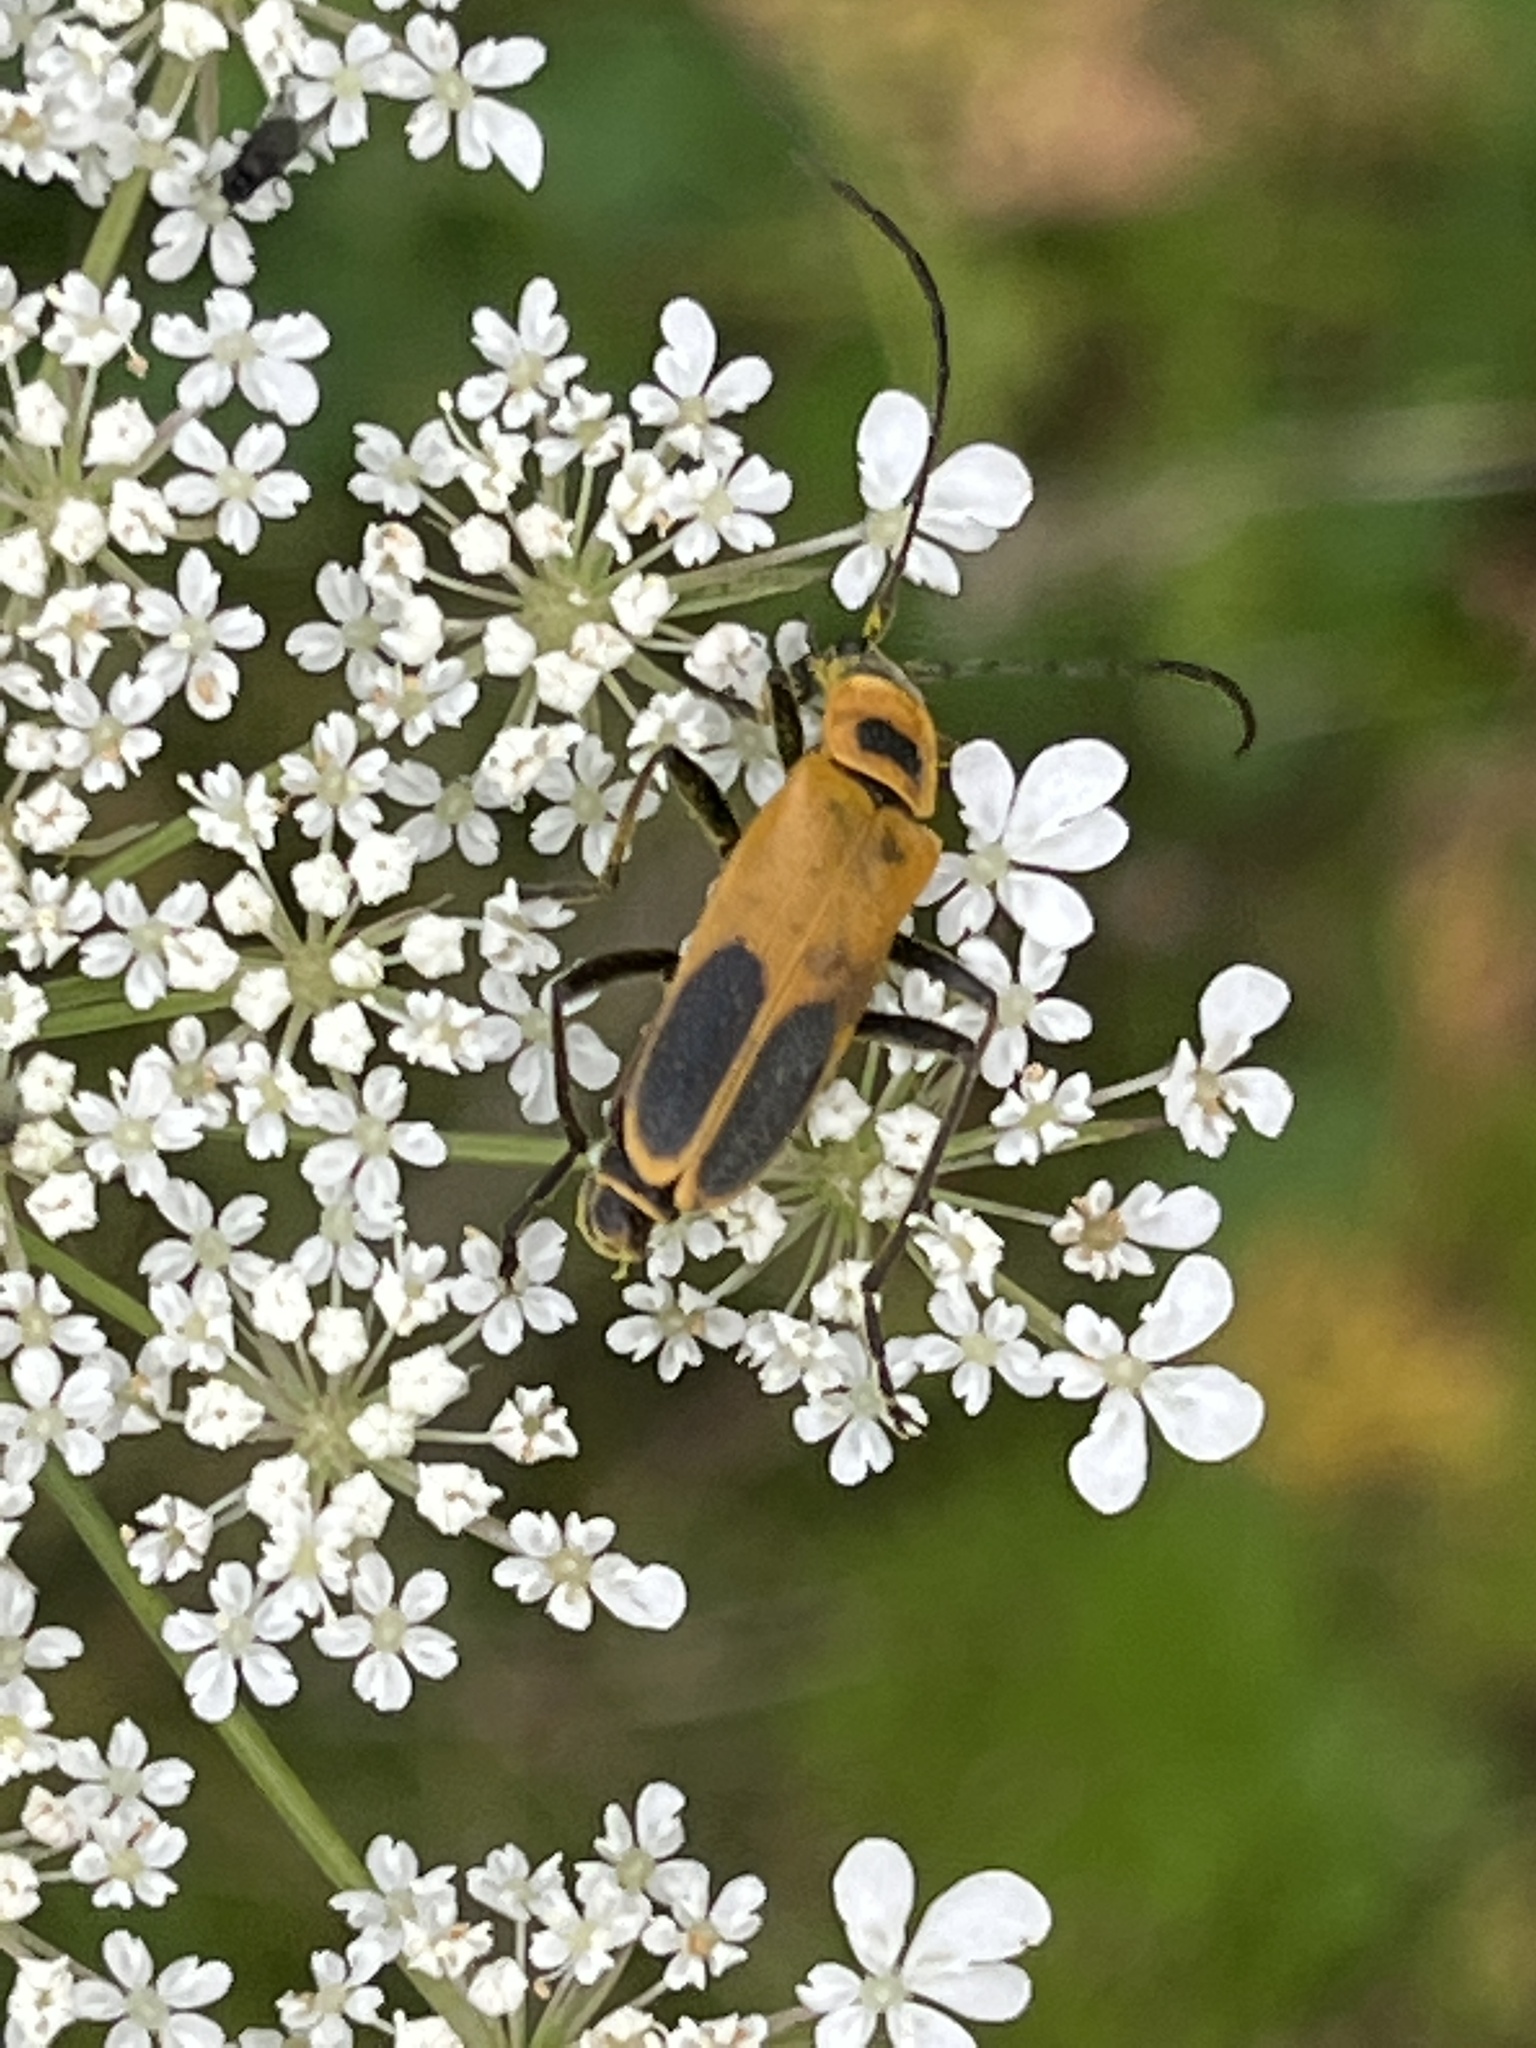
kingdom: Animalia
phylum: Arthropoda
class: Insecta
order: Coleoptera
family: Cantharidae
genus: Chauliognathus
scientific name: Chauliognathus pensylvanicus
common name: Goldenrod soldier beetle
